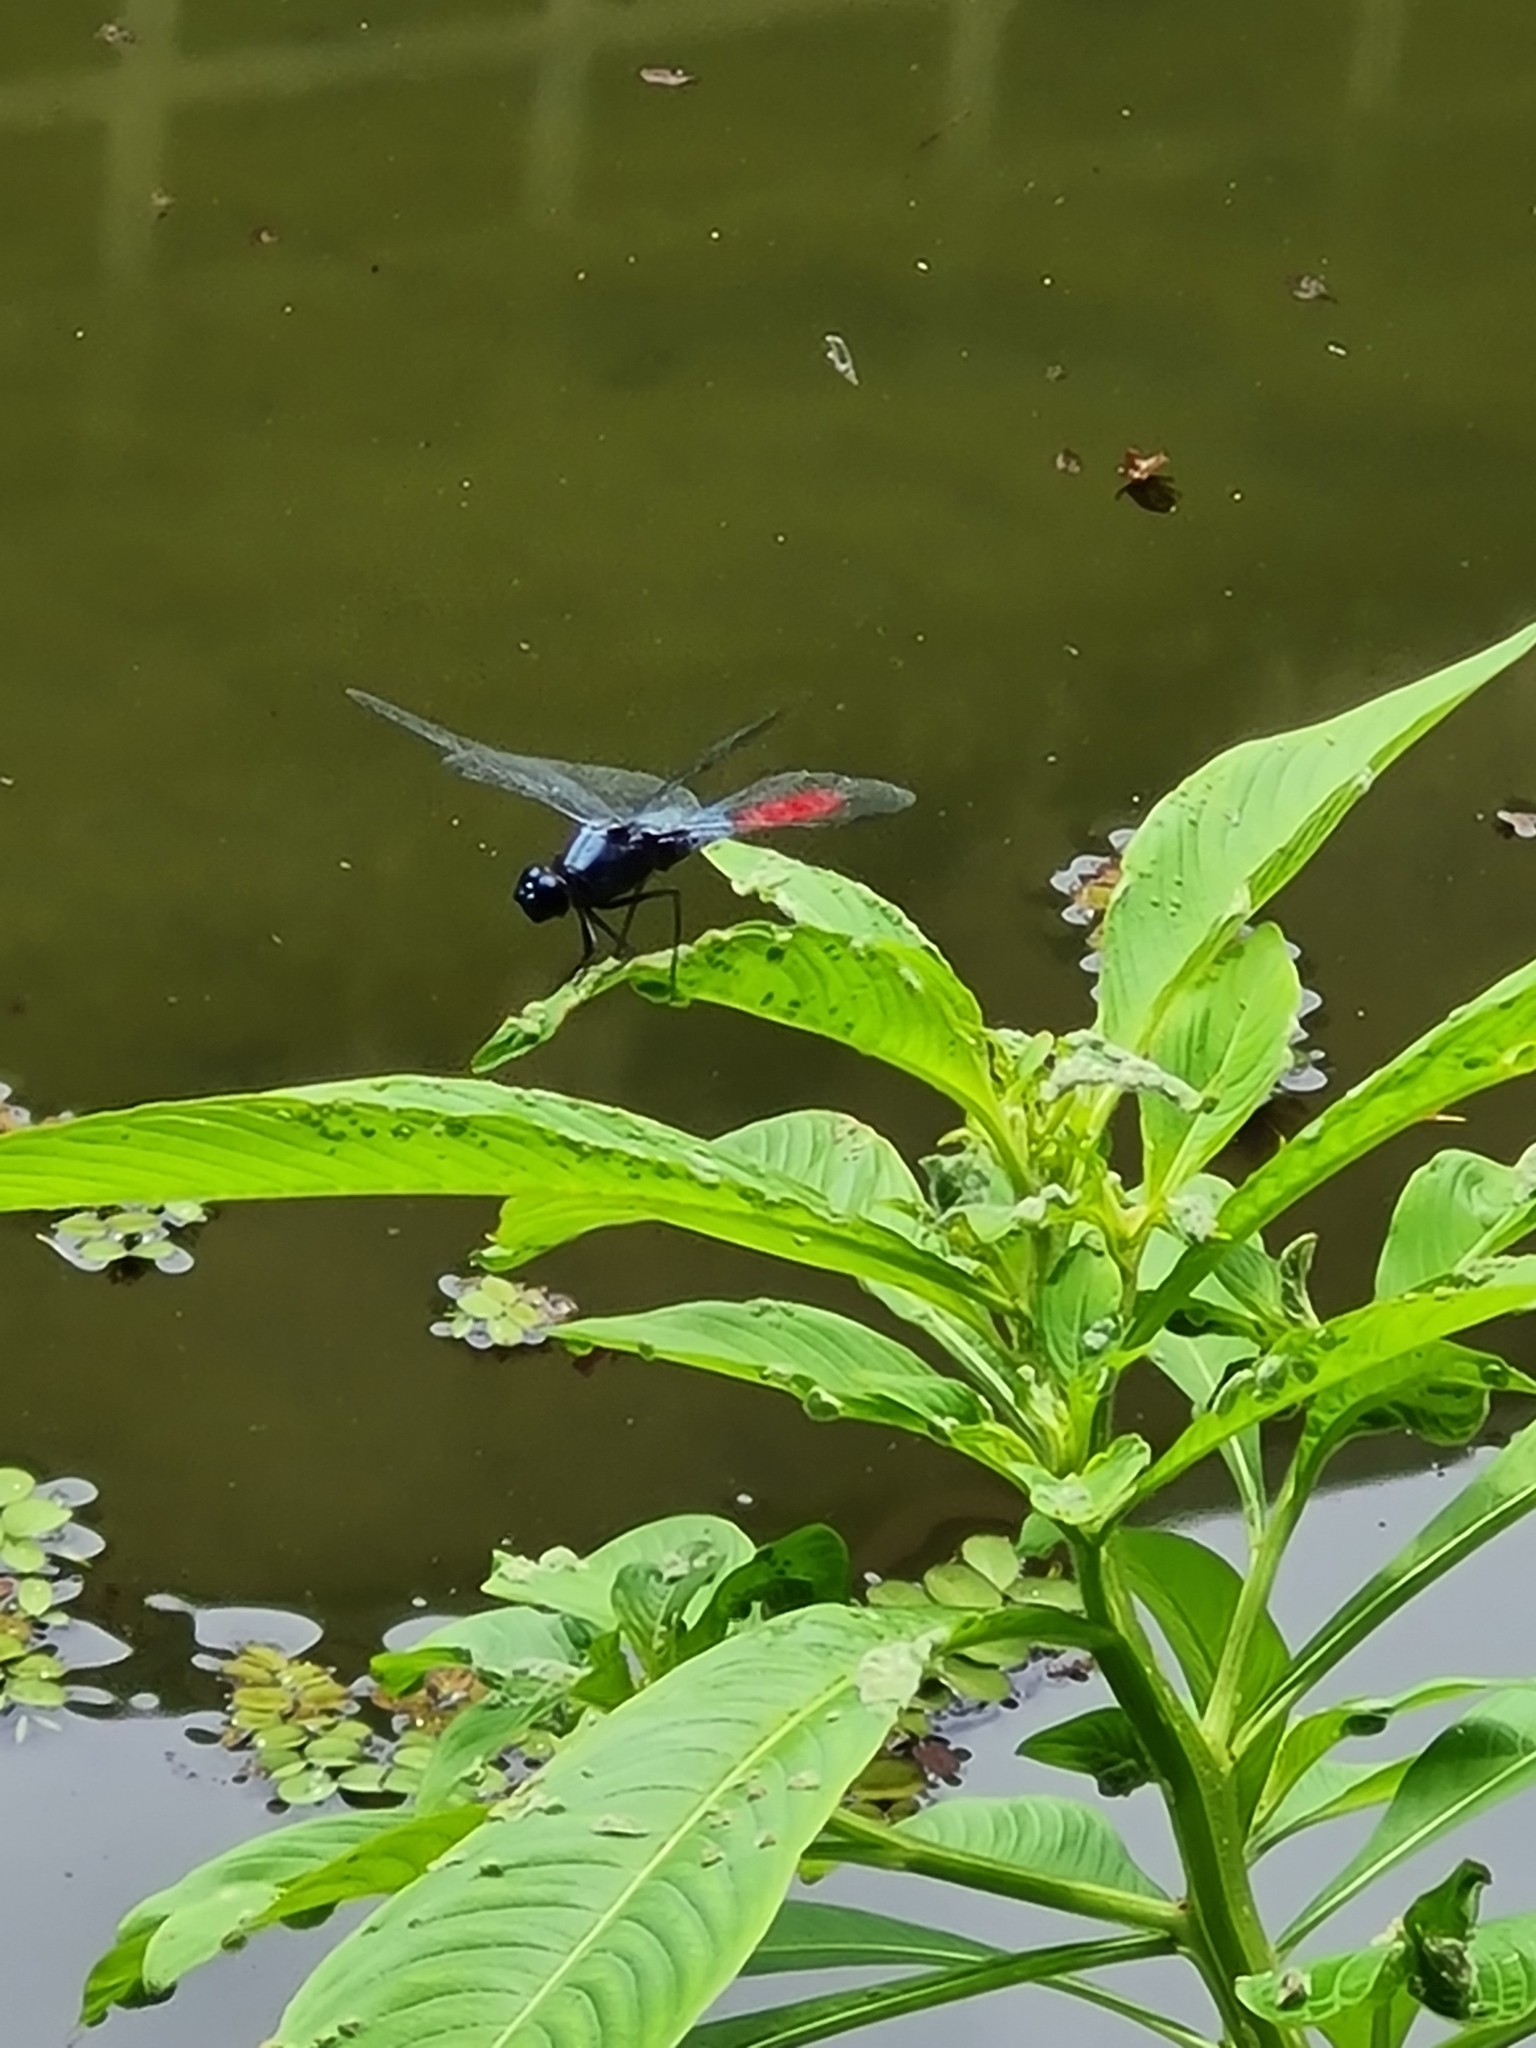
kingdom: Animalia
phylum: Arthropoda
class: Insecta
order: Odonata
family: Libellulidae
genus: Planiplax
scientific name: Planiplax erythropyga
